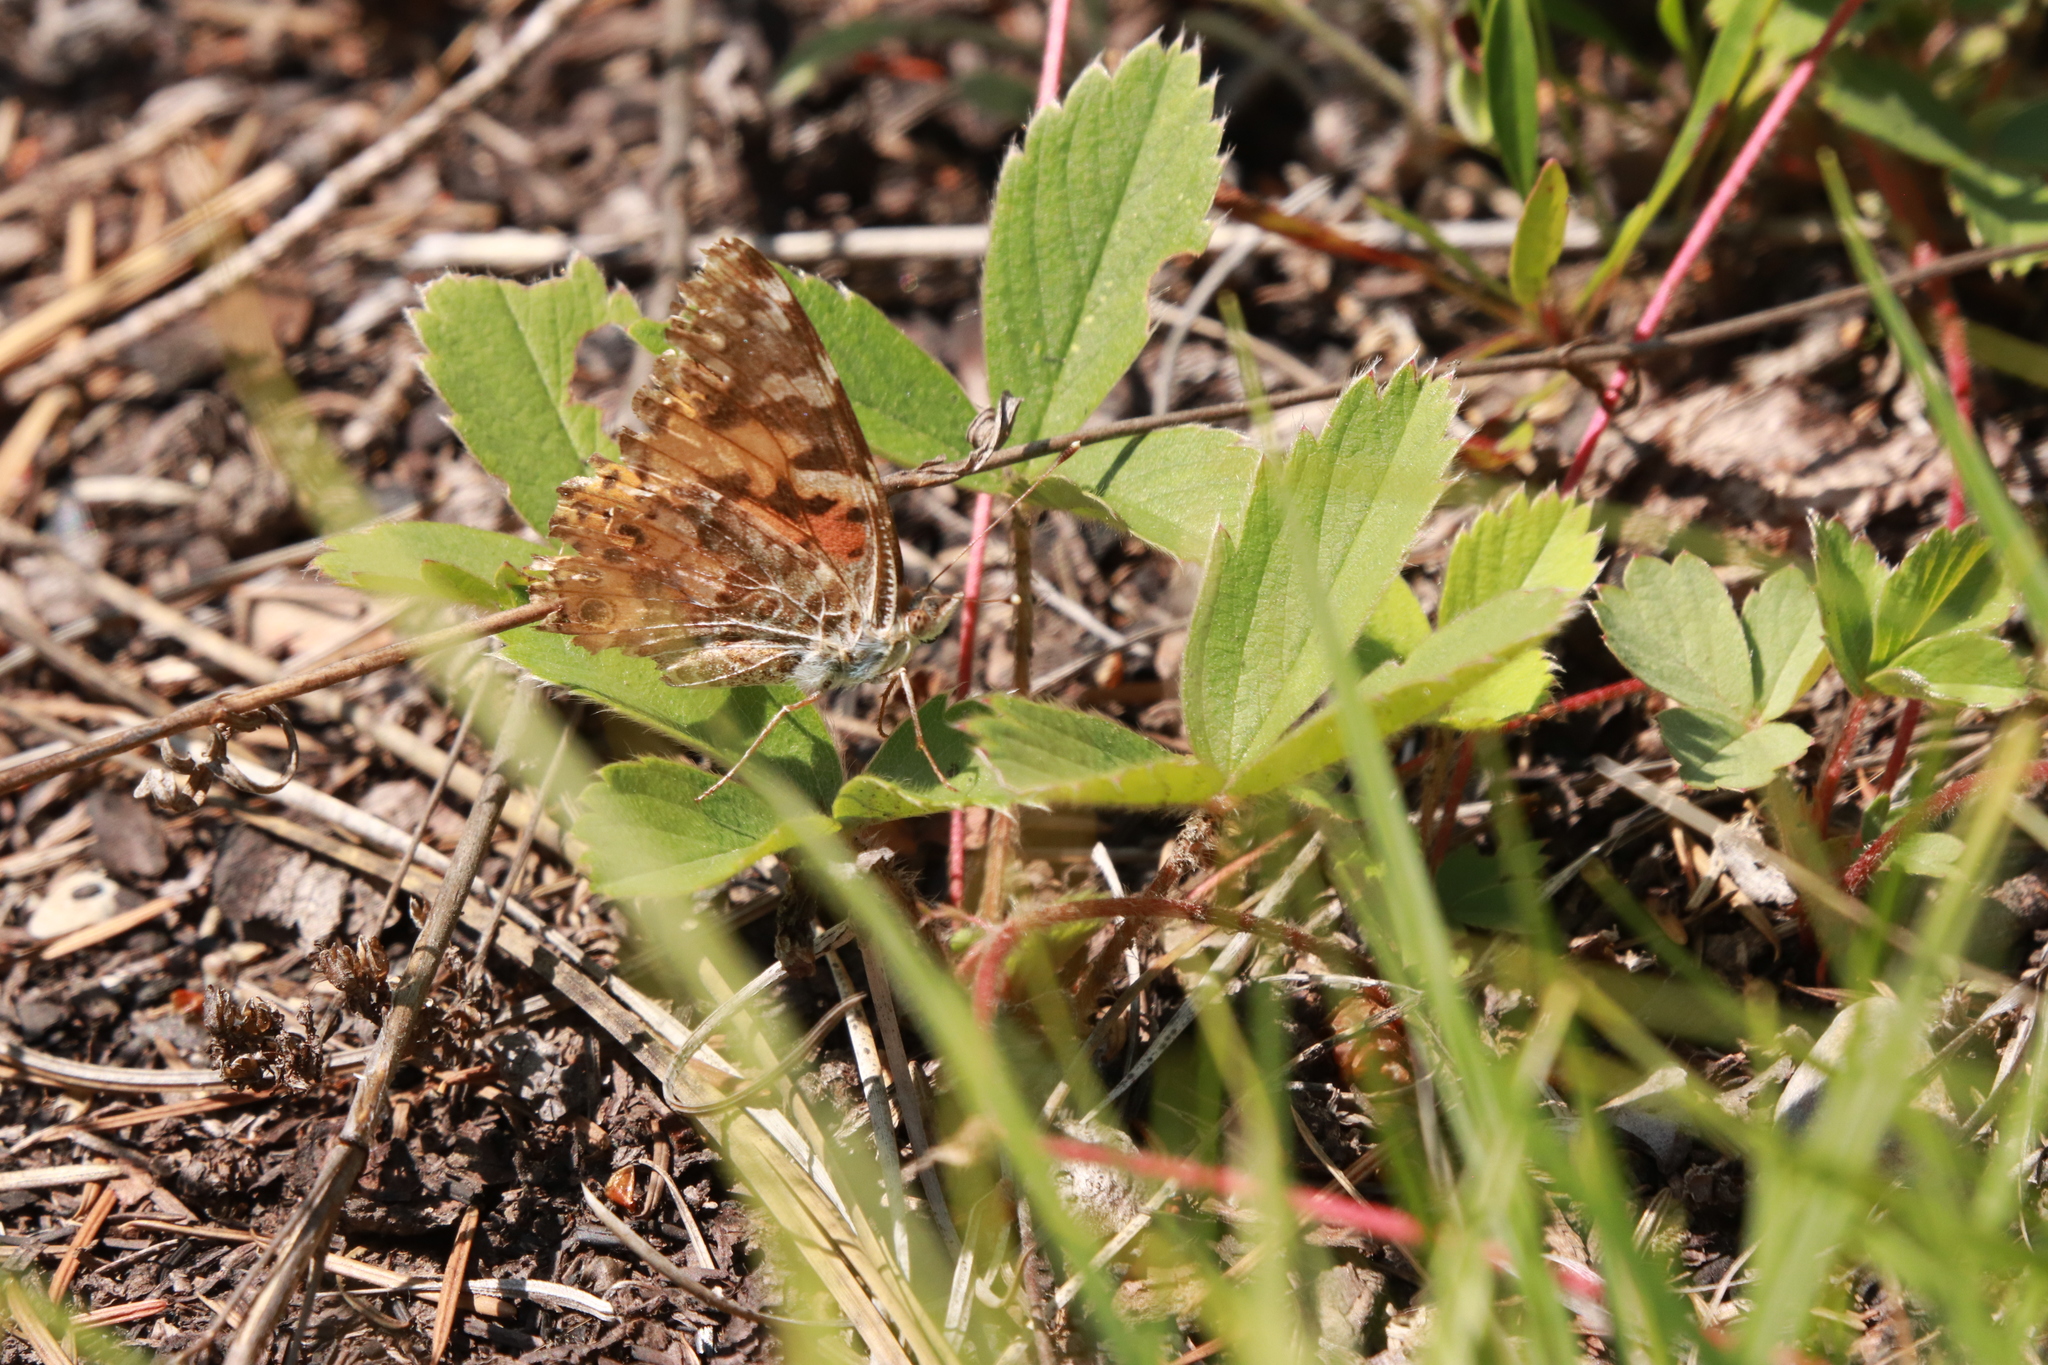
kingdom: Animalia
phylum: Arthropoda
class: Insecta
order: Lepidoptera
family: Nymphalidae
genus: Vanessa
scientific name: Vanessa cardui
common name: Painted lady
